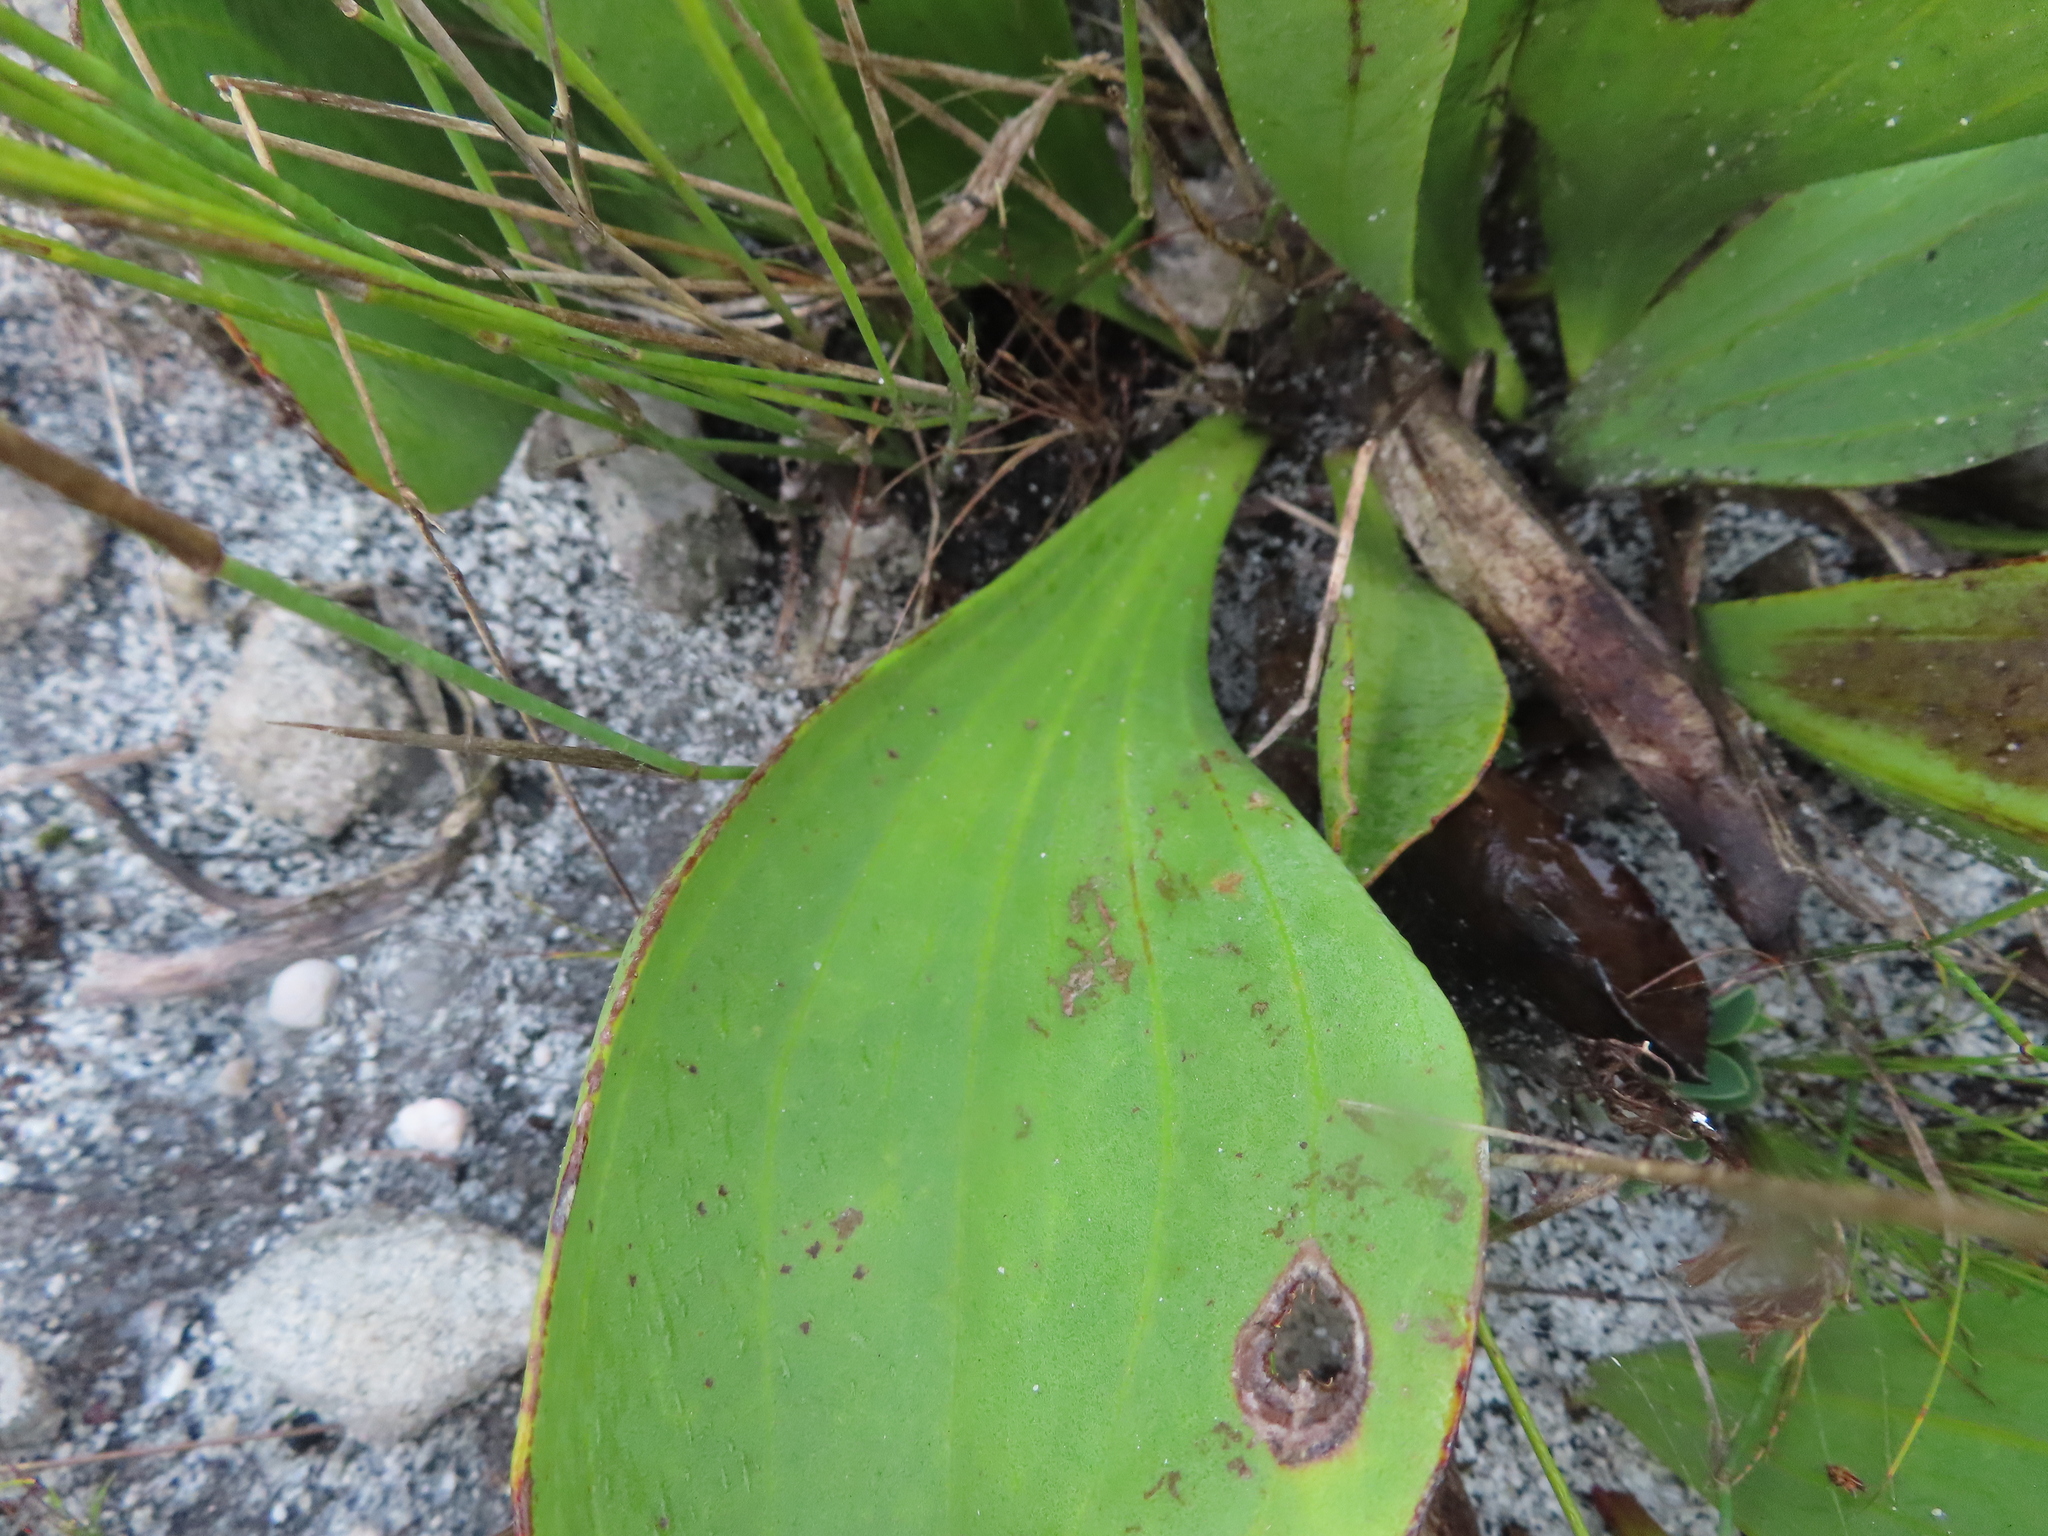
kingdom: Plantae
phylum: Tracheophyta
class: Magnoliopsida
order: Asterales
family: Asteraceae
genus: Mairia
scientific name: Mairia coriacea
